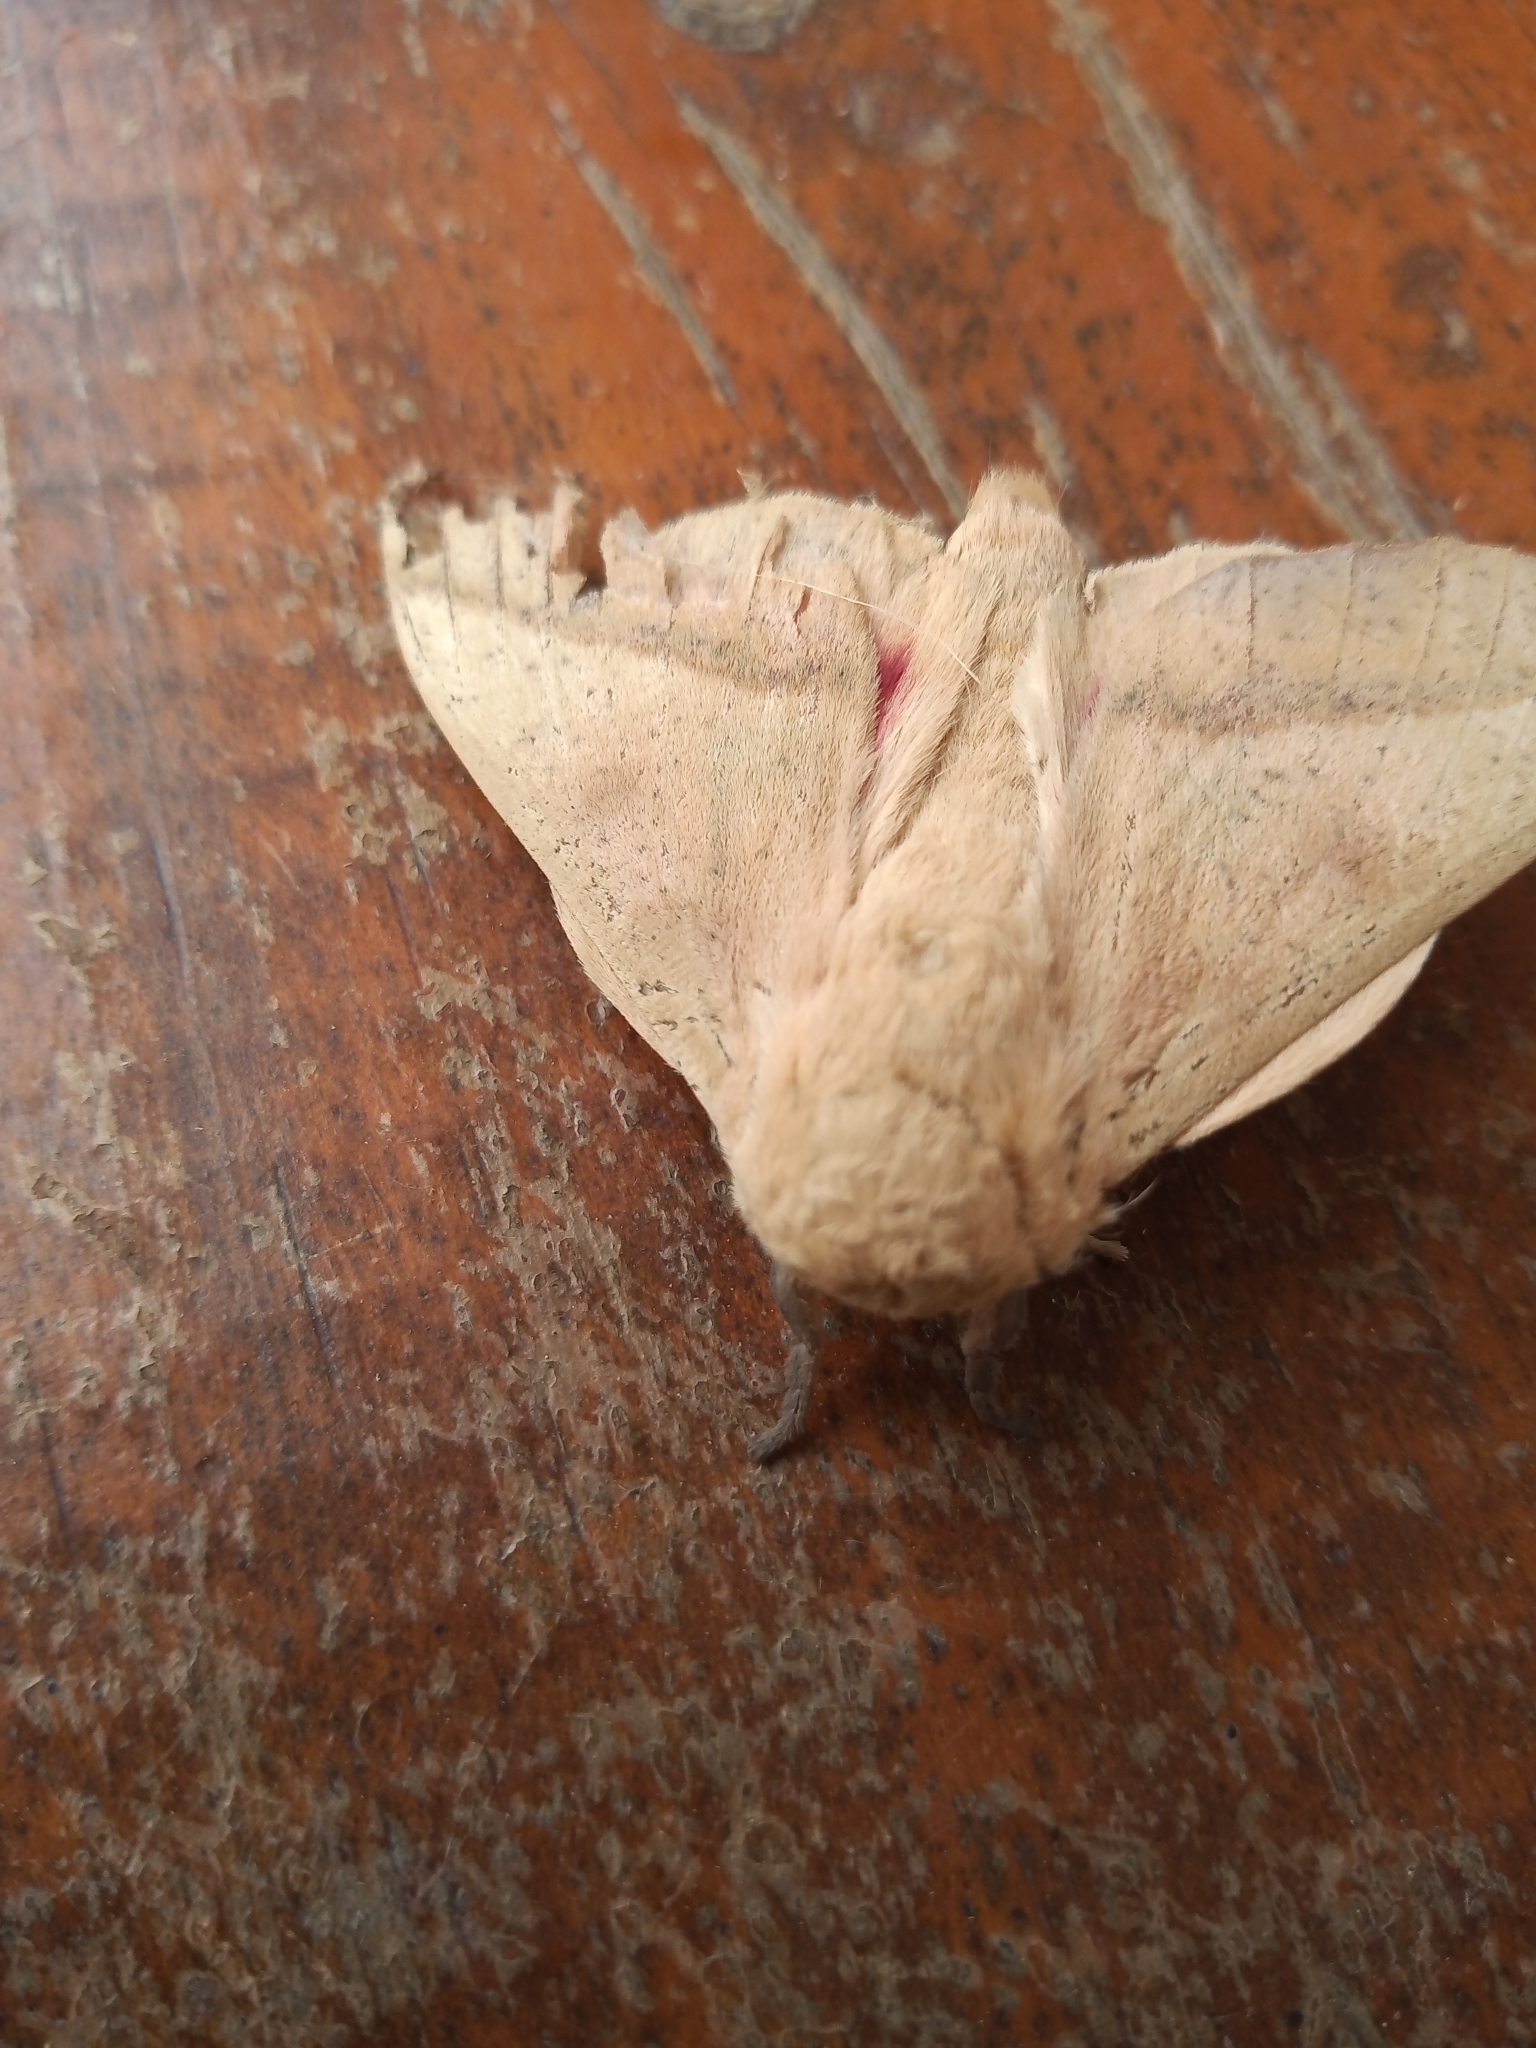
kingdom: Animalia
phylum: Arthropoda
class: Insecta
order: Lepidoptera
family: Saturniidae
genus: Syssphinx
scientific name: Syssphinx molina
